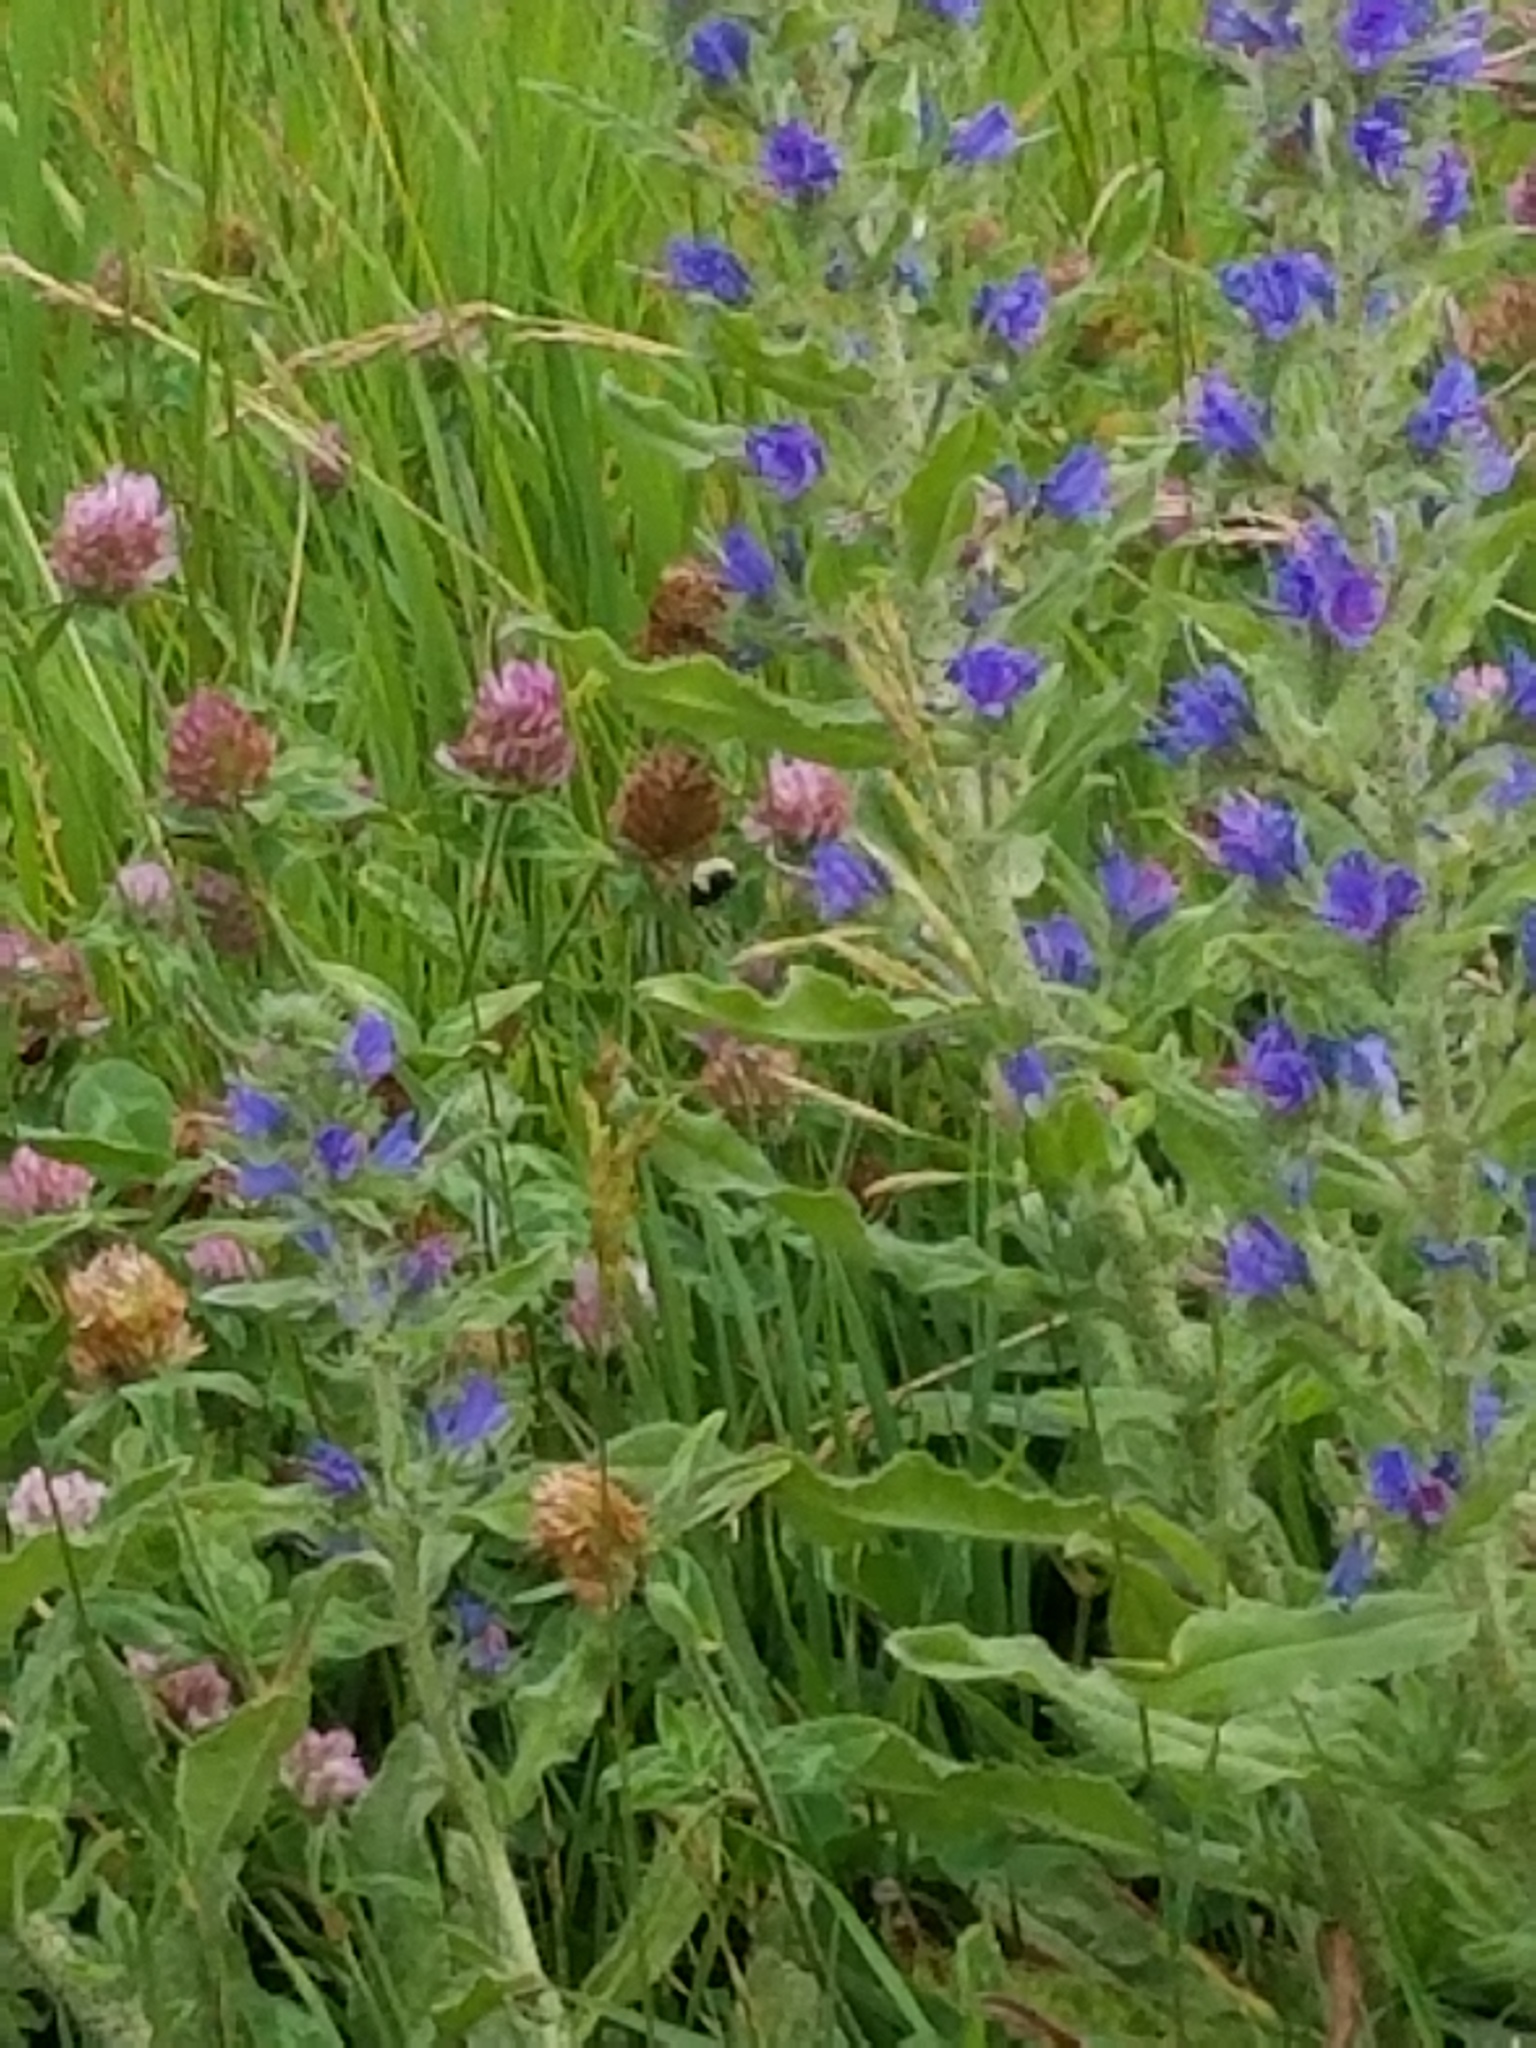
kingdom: Plantae
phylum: Tracheophyta
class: Magnoliopsida
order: Boraginales
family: Boraginaceae
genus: Echium
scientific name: Echium vulgare
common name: Common viper's bugloss
